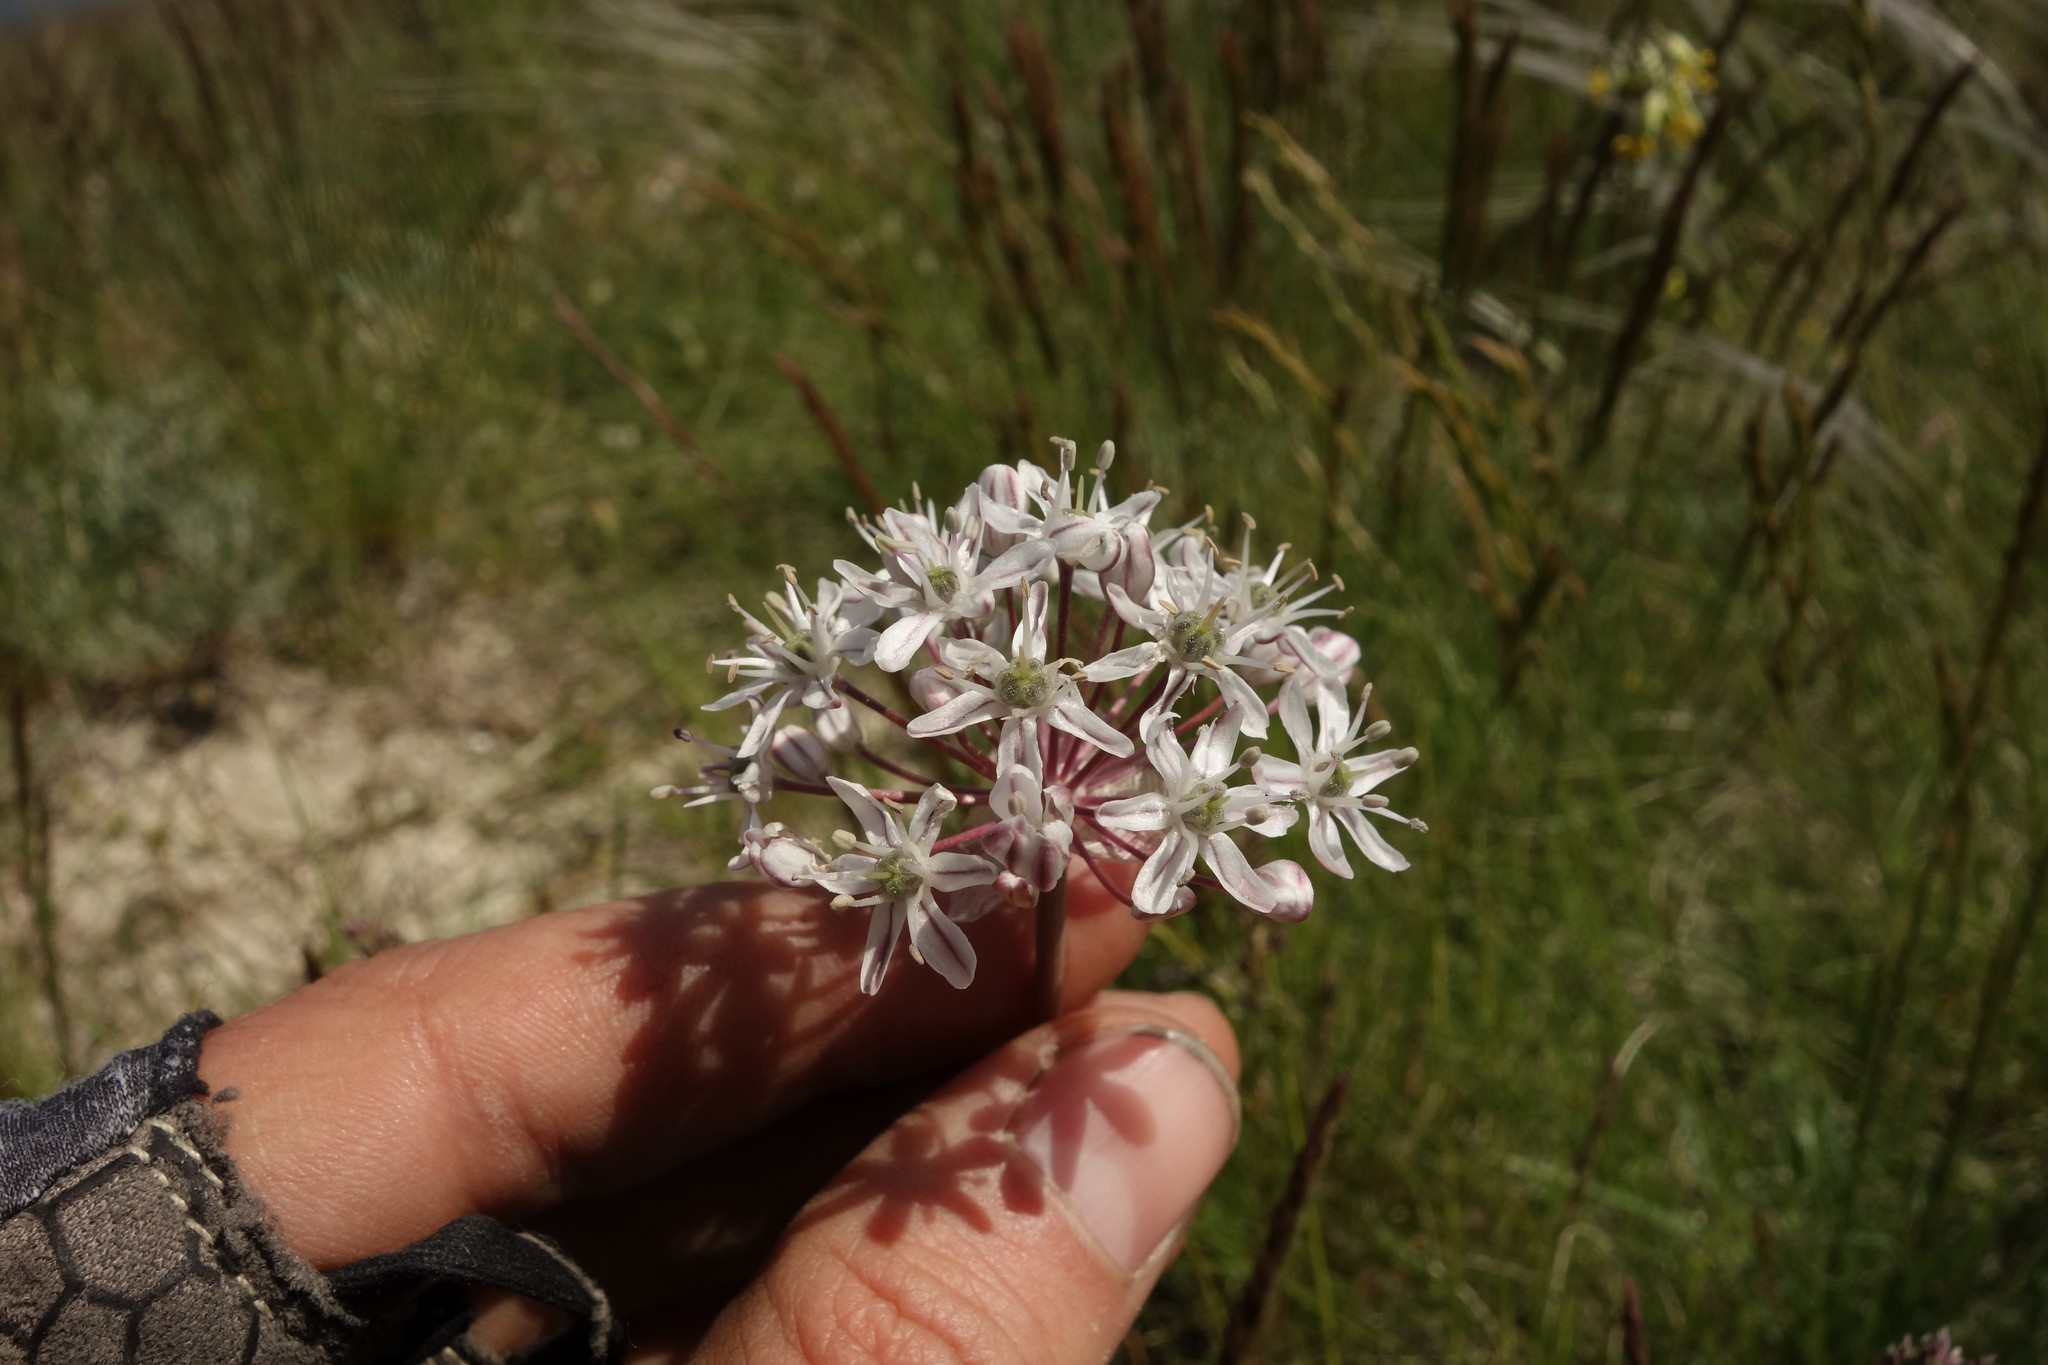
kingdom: Plantae
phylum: Tracheophyta
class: Liliopsida
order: Asparagales
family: Amaryllidaceae
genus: Allium
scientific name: Allium tulipifolium
